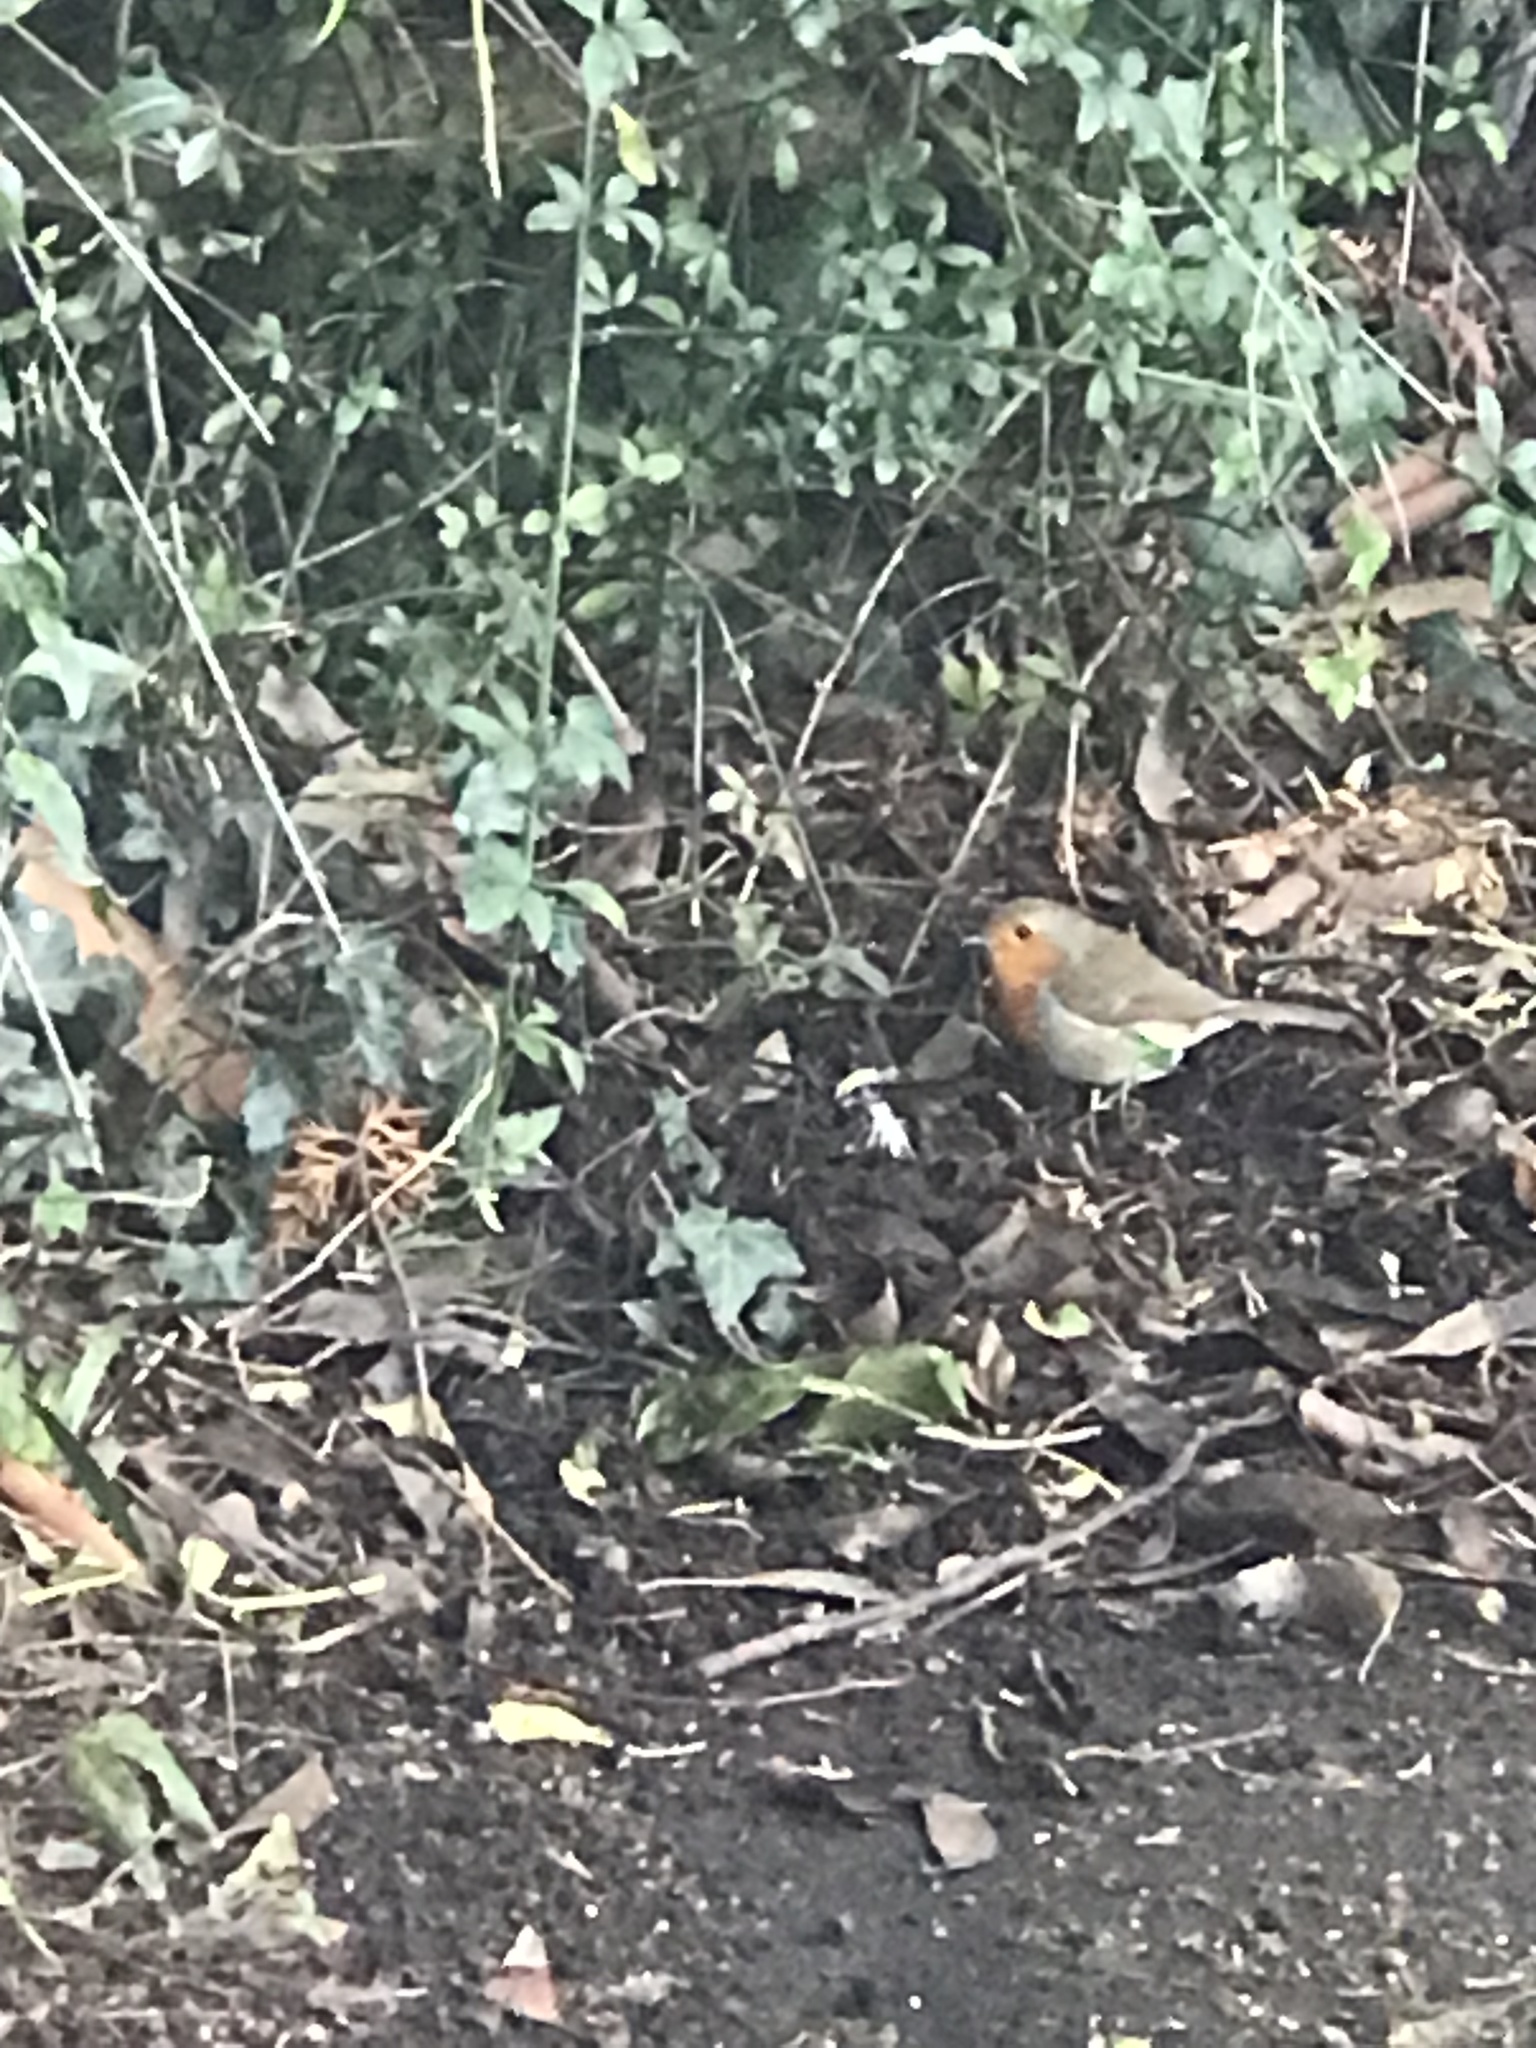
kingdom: Animalia
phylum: Chordata
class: Aves
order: Passeriformes
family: Muscicapidae
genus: Erithacus
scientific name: Erithacus rubecula
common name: European robin
